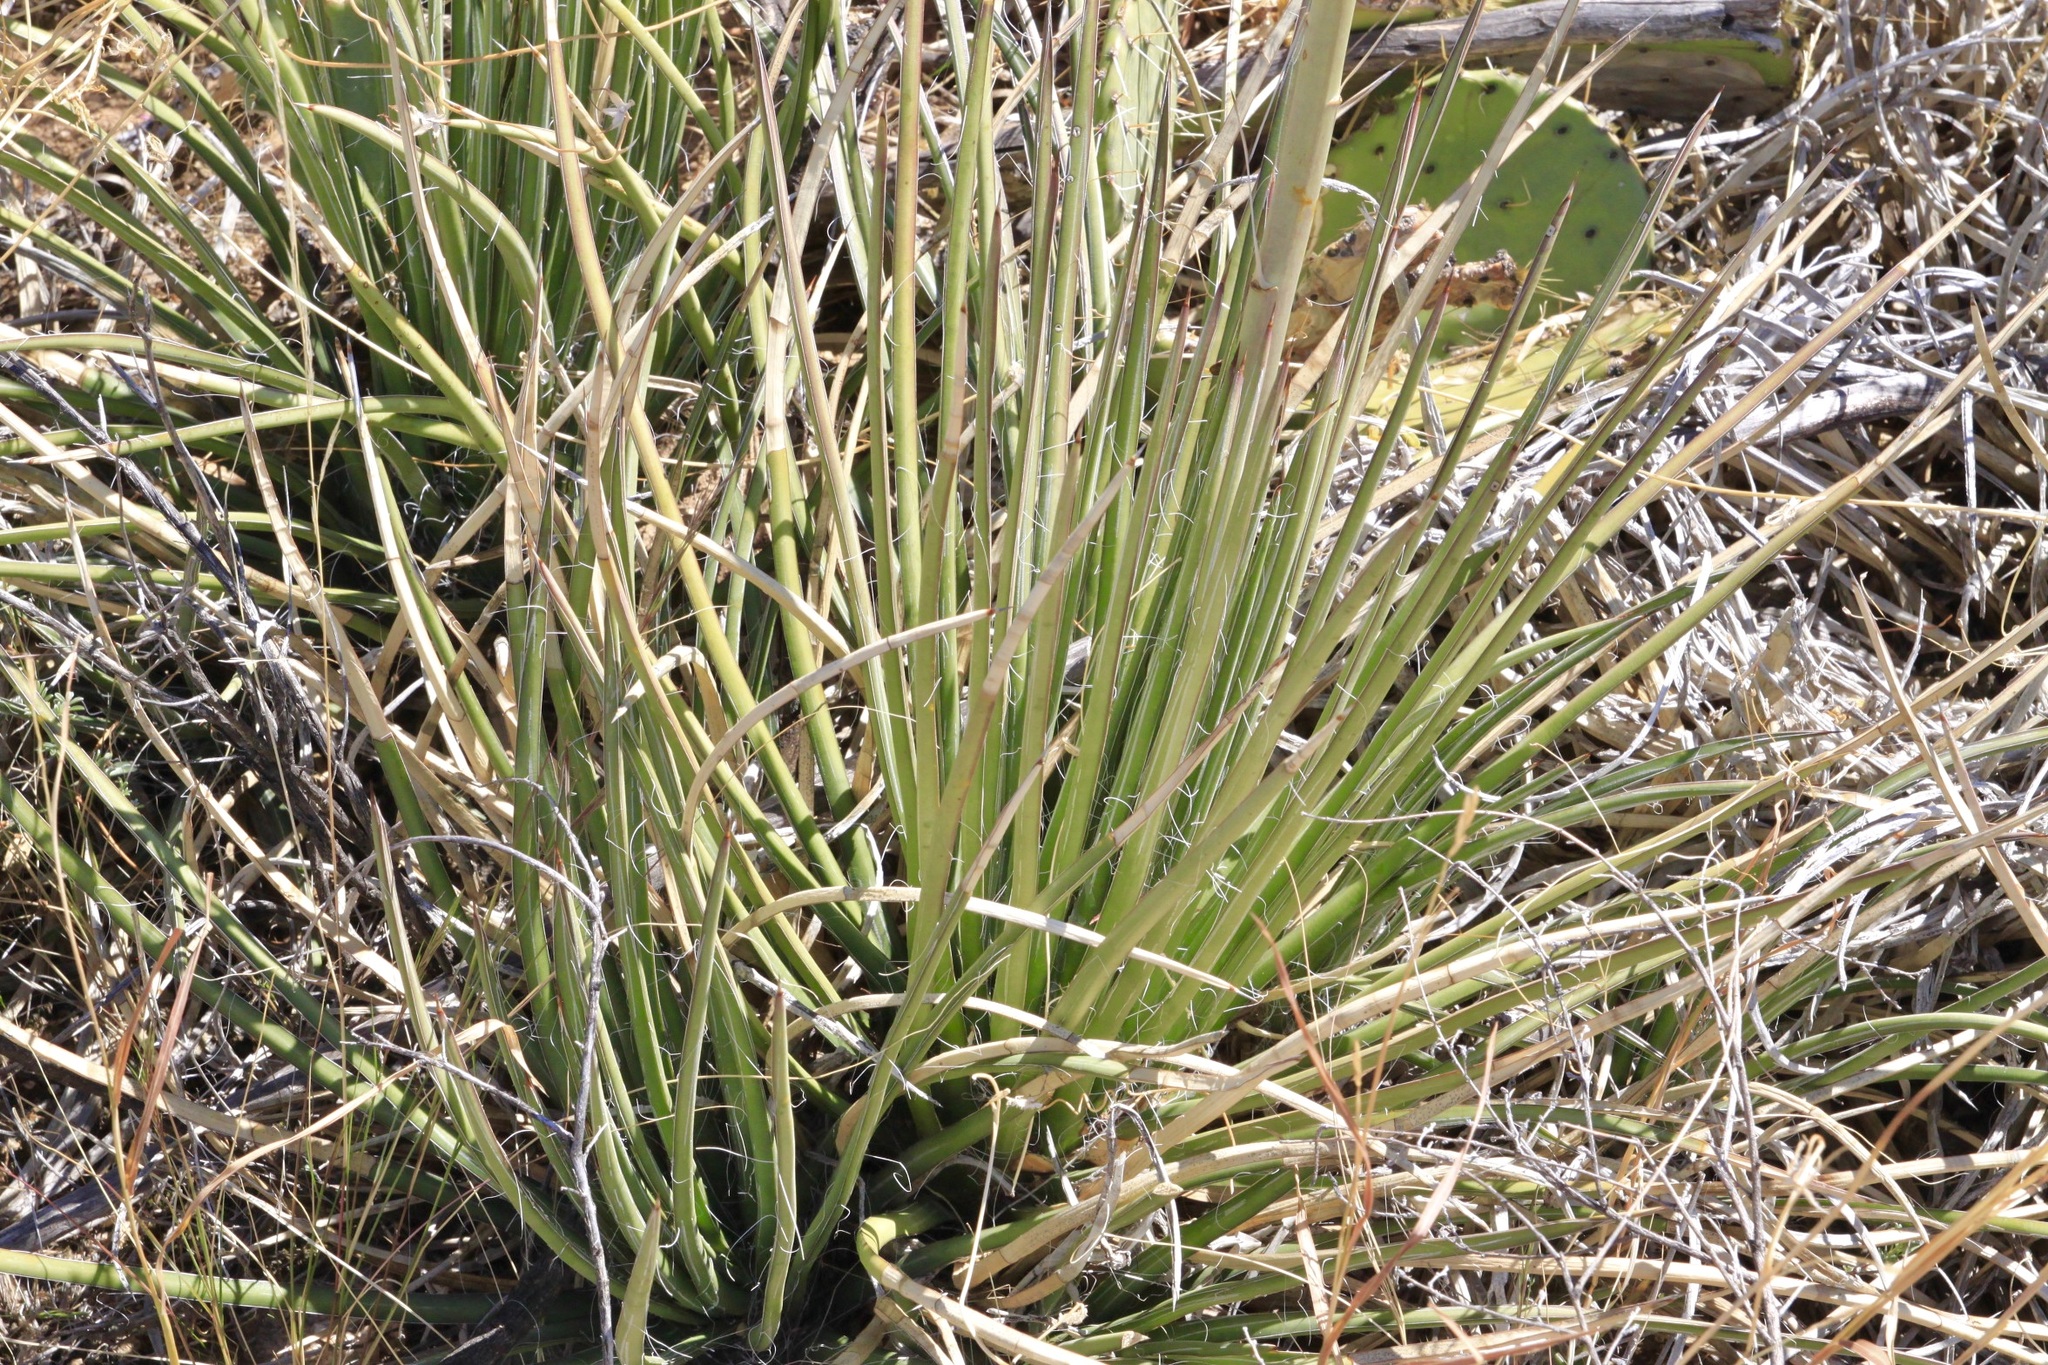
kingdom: Plantae
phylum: Tracheophyta
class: Liliopsida
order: Asparagales
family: Asparagaceae
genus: Agave
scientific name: Agave schottii
